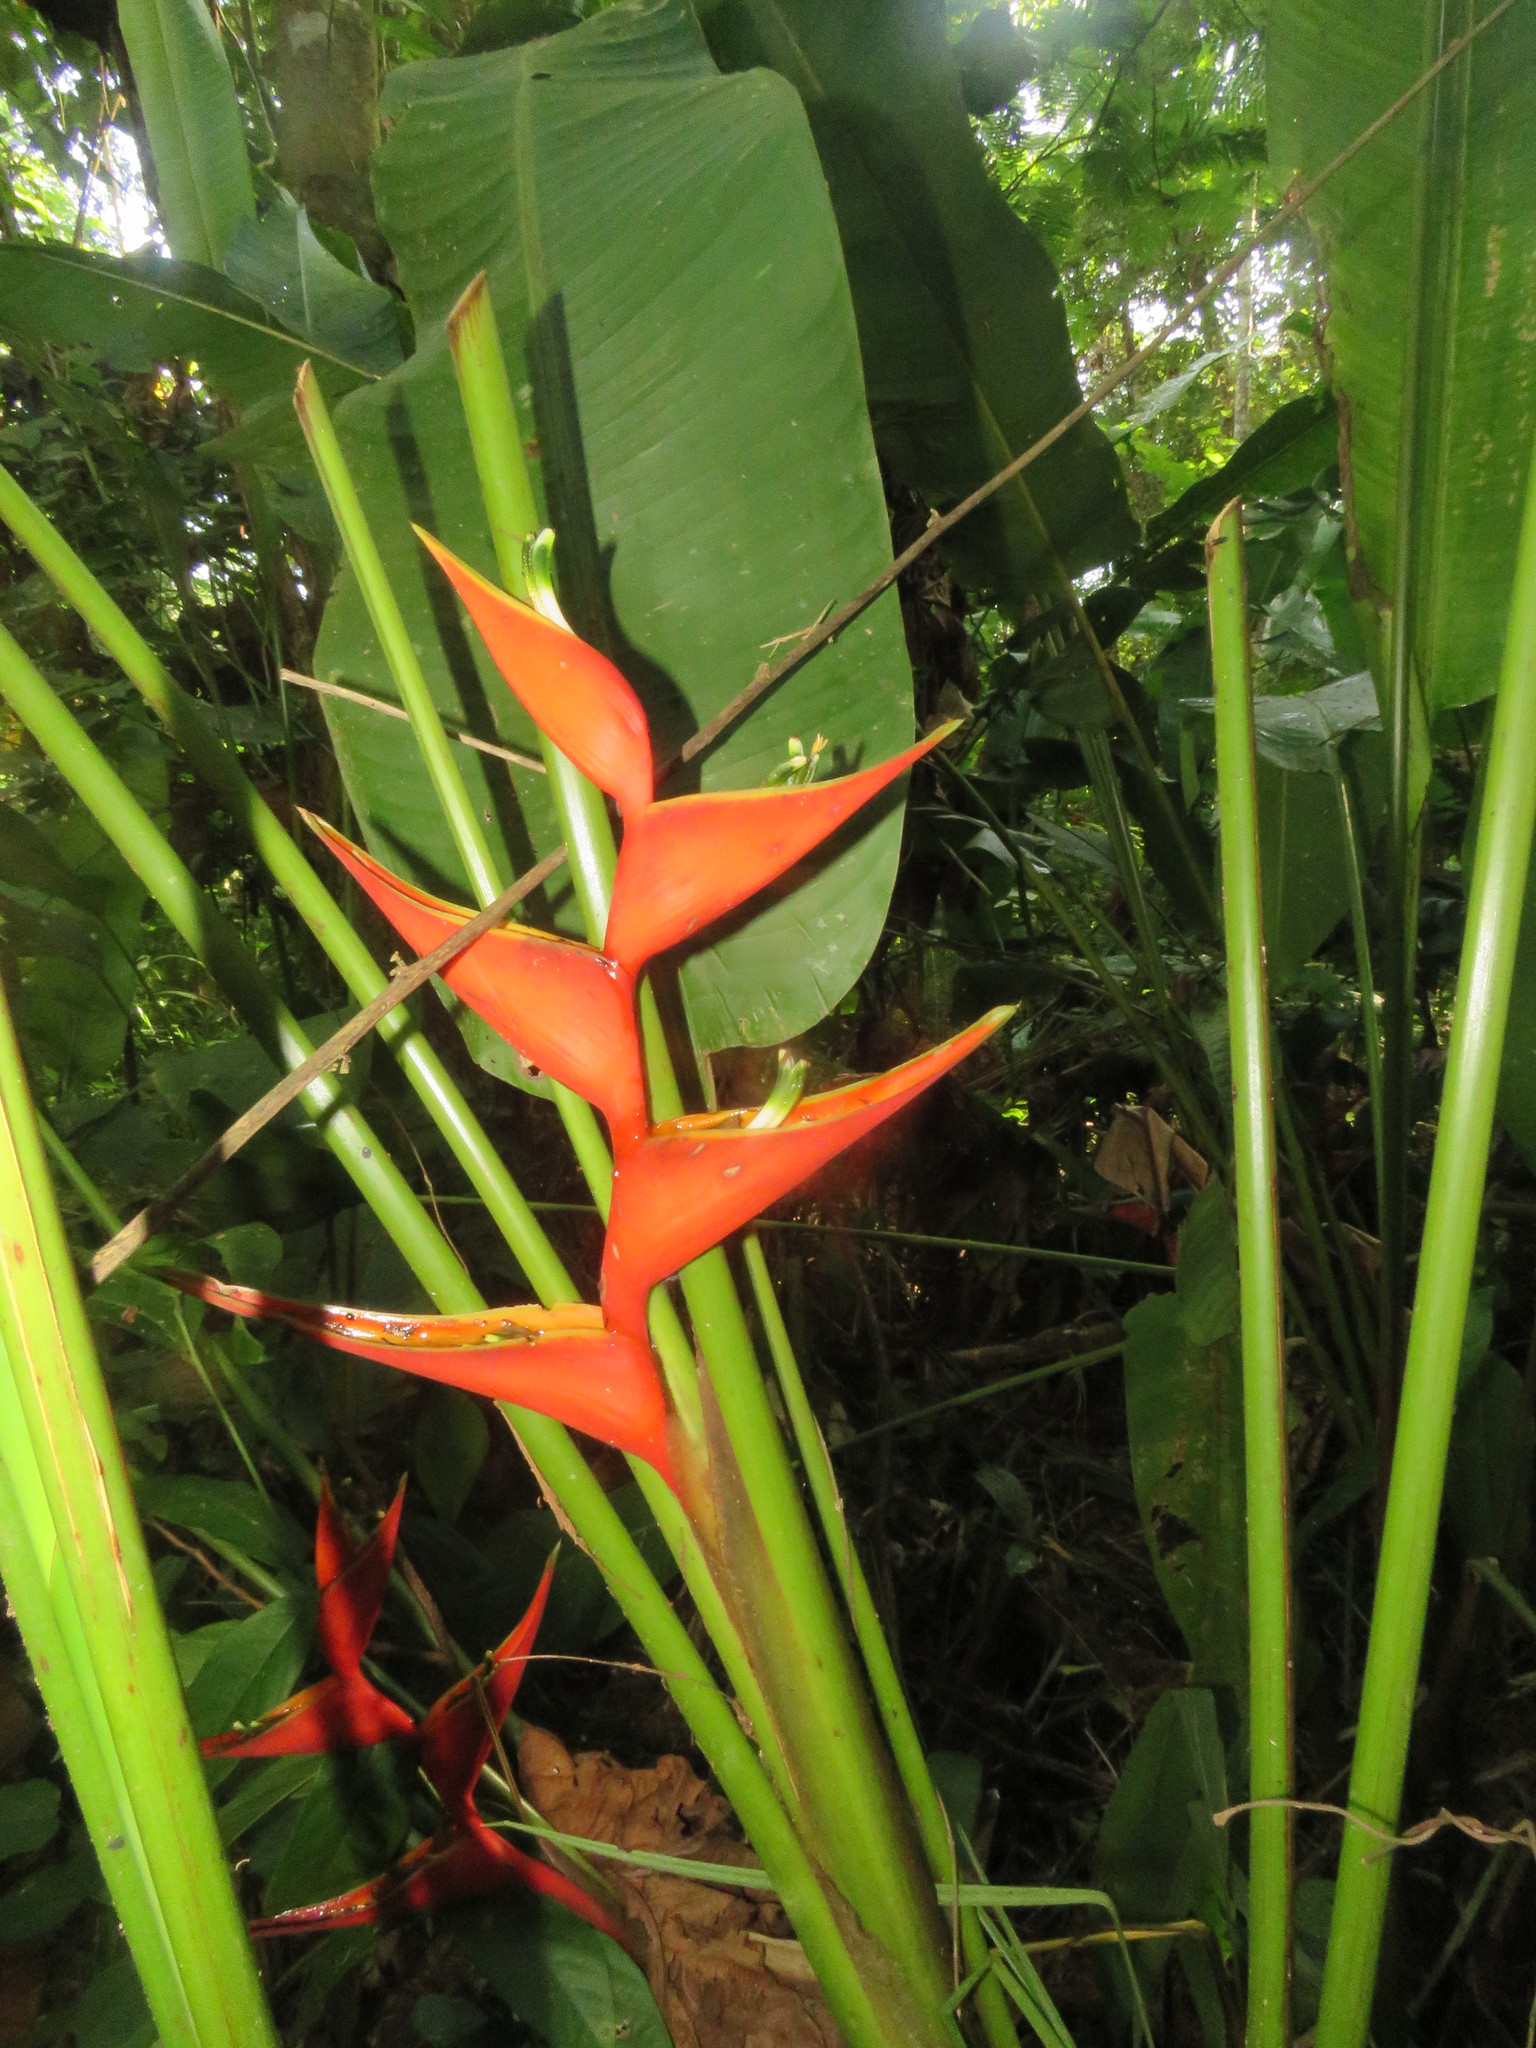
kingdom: Plantae
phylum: Tracheophyta
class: Liliopsida
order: Zingiberales
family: Heliconiaceae
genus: Heliconia
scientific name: Heliconia stricta
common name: Small lobster claw
